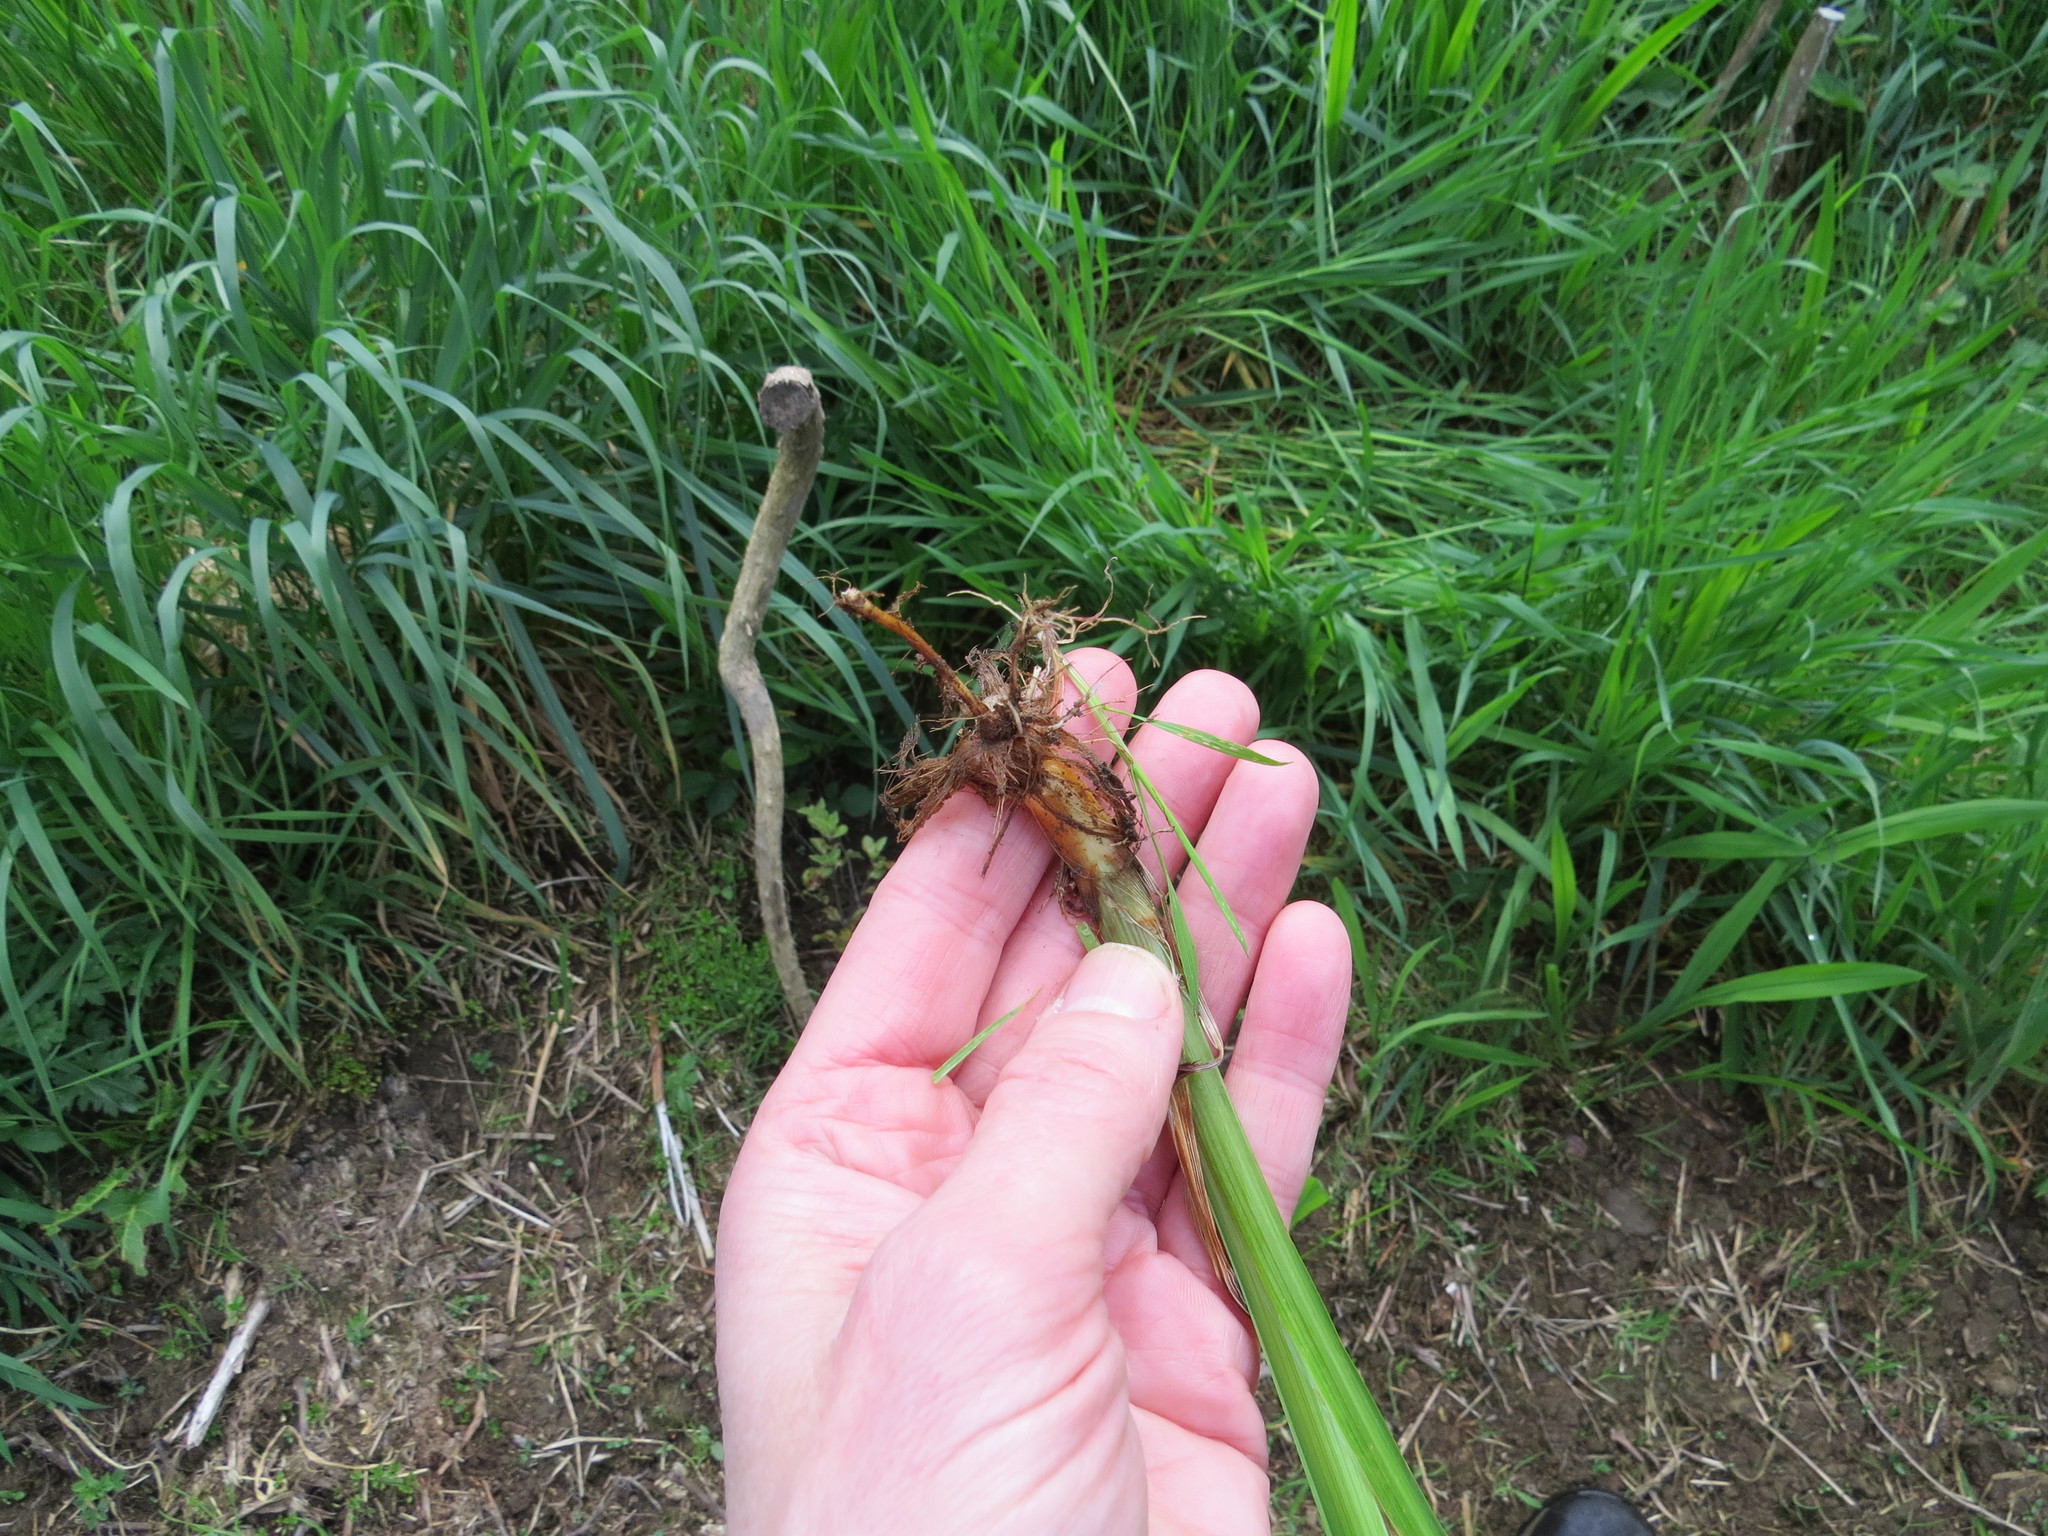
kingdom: Plantae
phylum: Tracheophyta
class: Liliopsida
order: Asparagales
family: Iridaceae
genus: Crocosmia
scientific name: Crocosmia crocosmiiflora
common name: Montbretia
